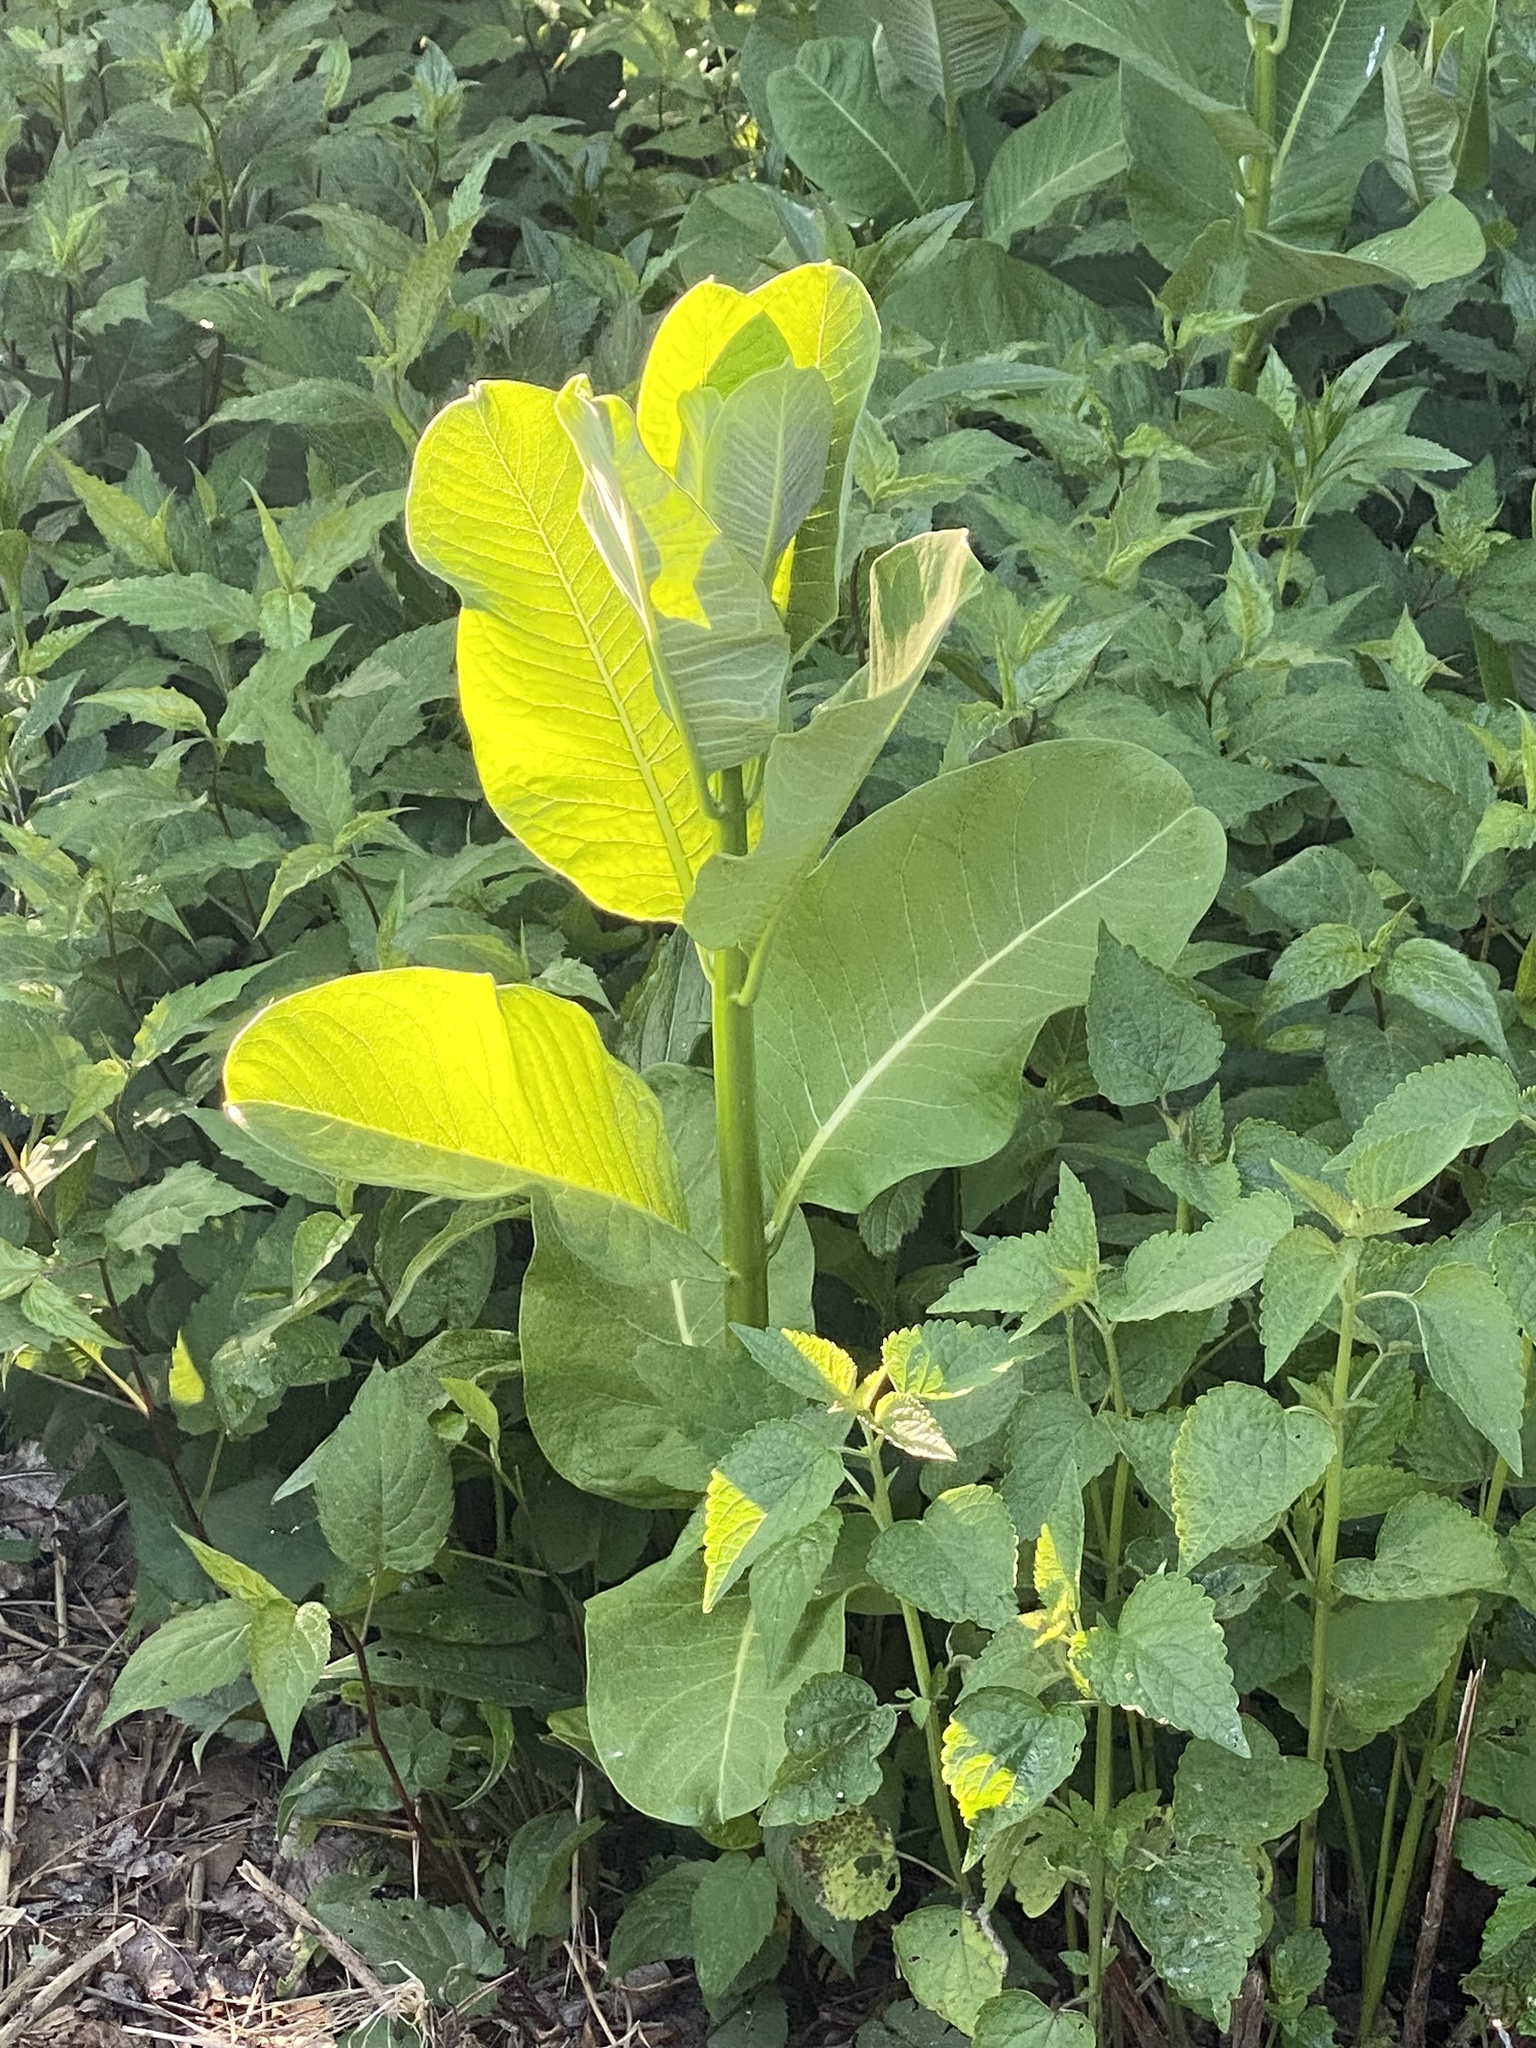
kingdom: Plantae
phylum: Tracheophyta
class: Magnoliopsida
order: Gentianales
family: Apocynaceae
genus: Asclepias
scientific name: Asclepias syriaca
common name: Common milkweed
